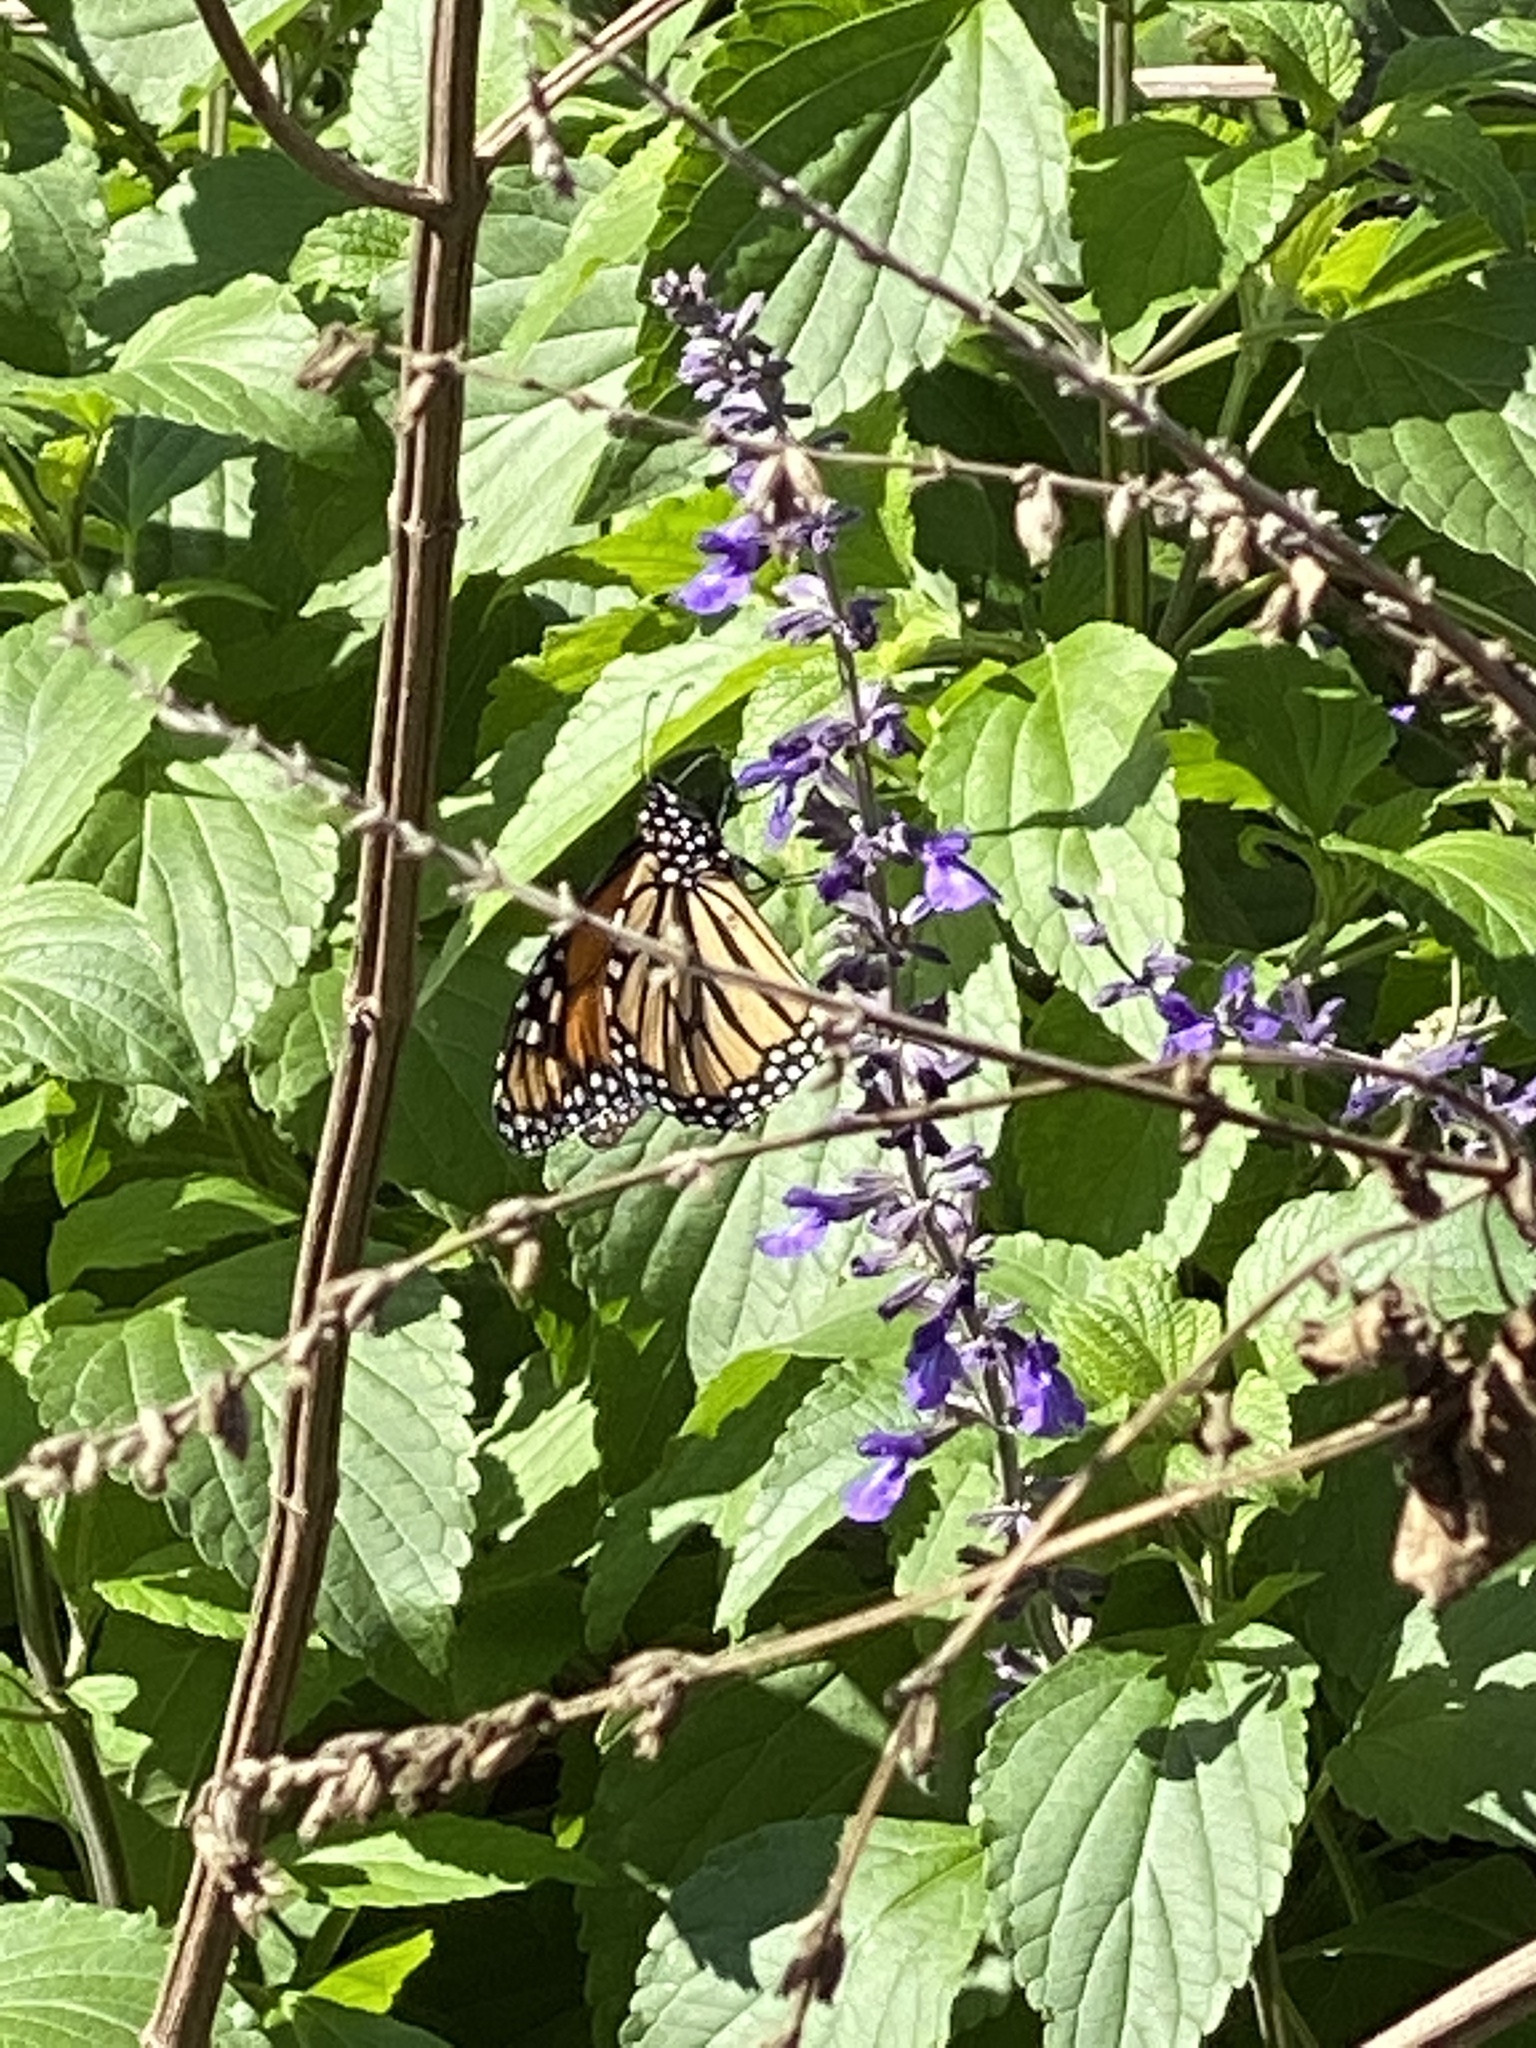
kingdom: Animalia
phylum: Arthropoda
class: Insecta
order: Lepidoptera
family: Nymphalidae
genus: Danaus
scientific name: Danaus plexippus
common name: Monarch
